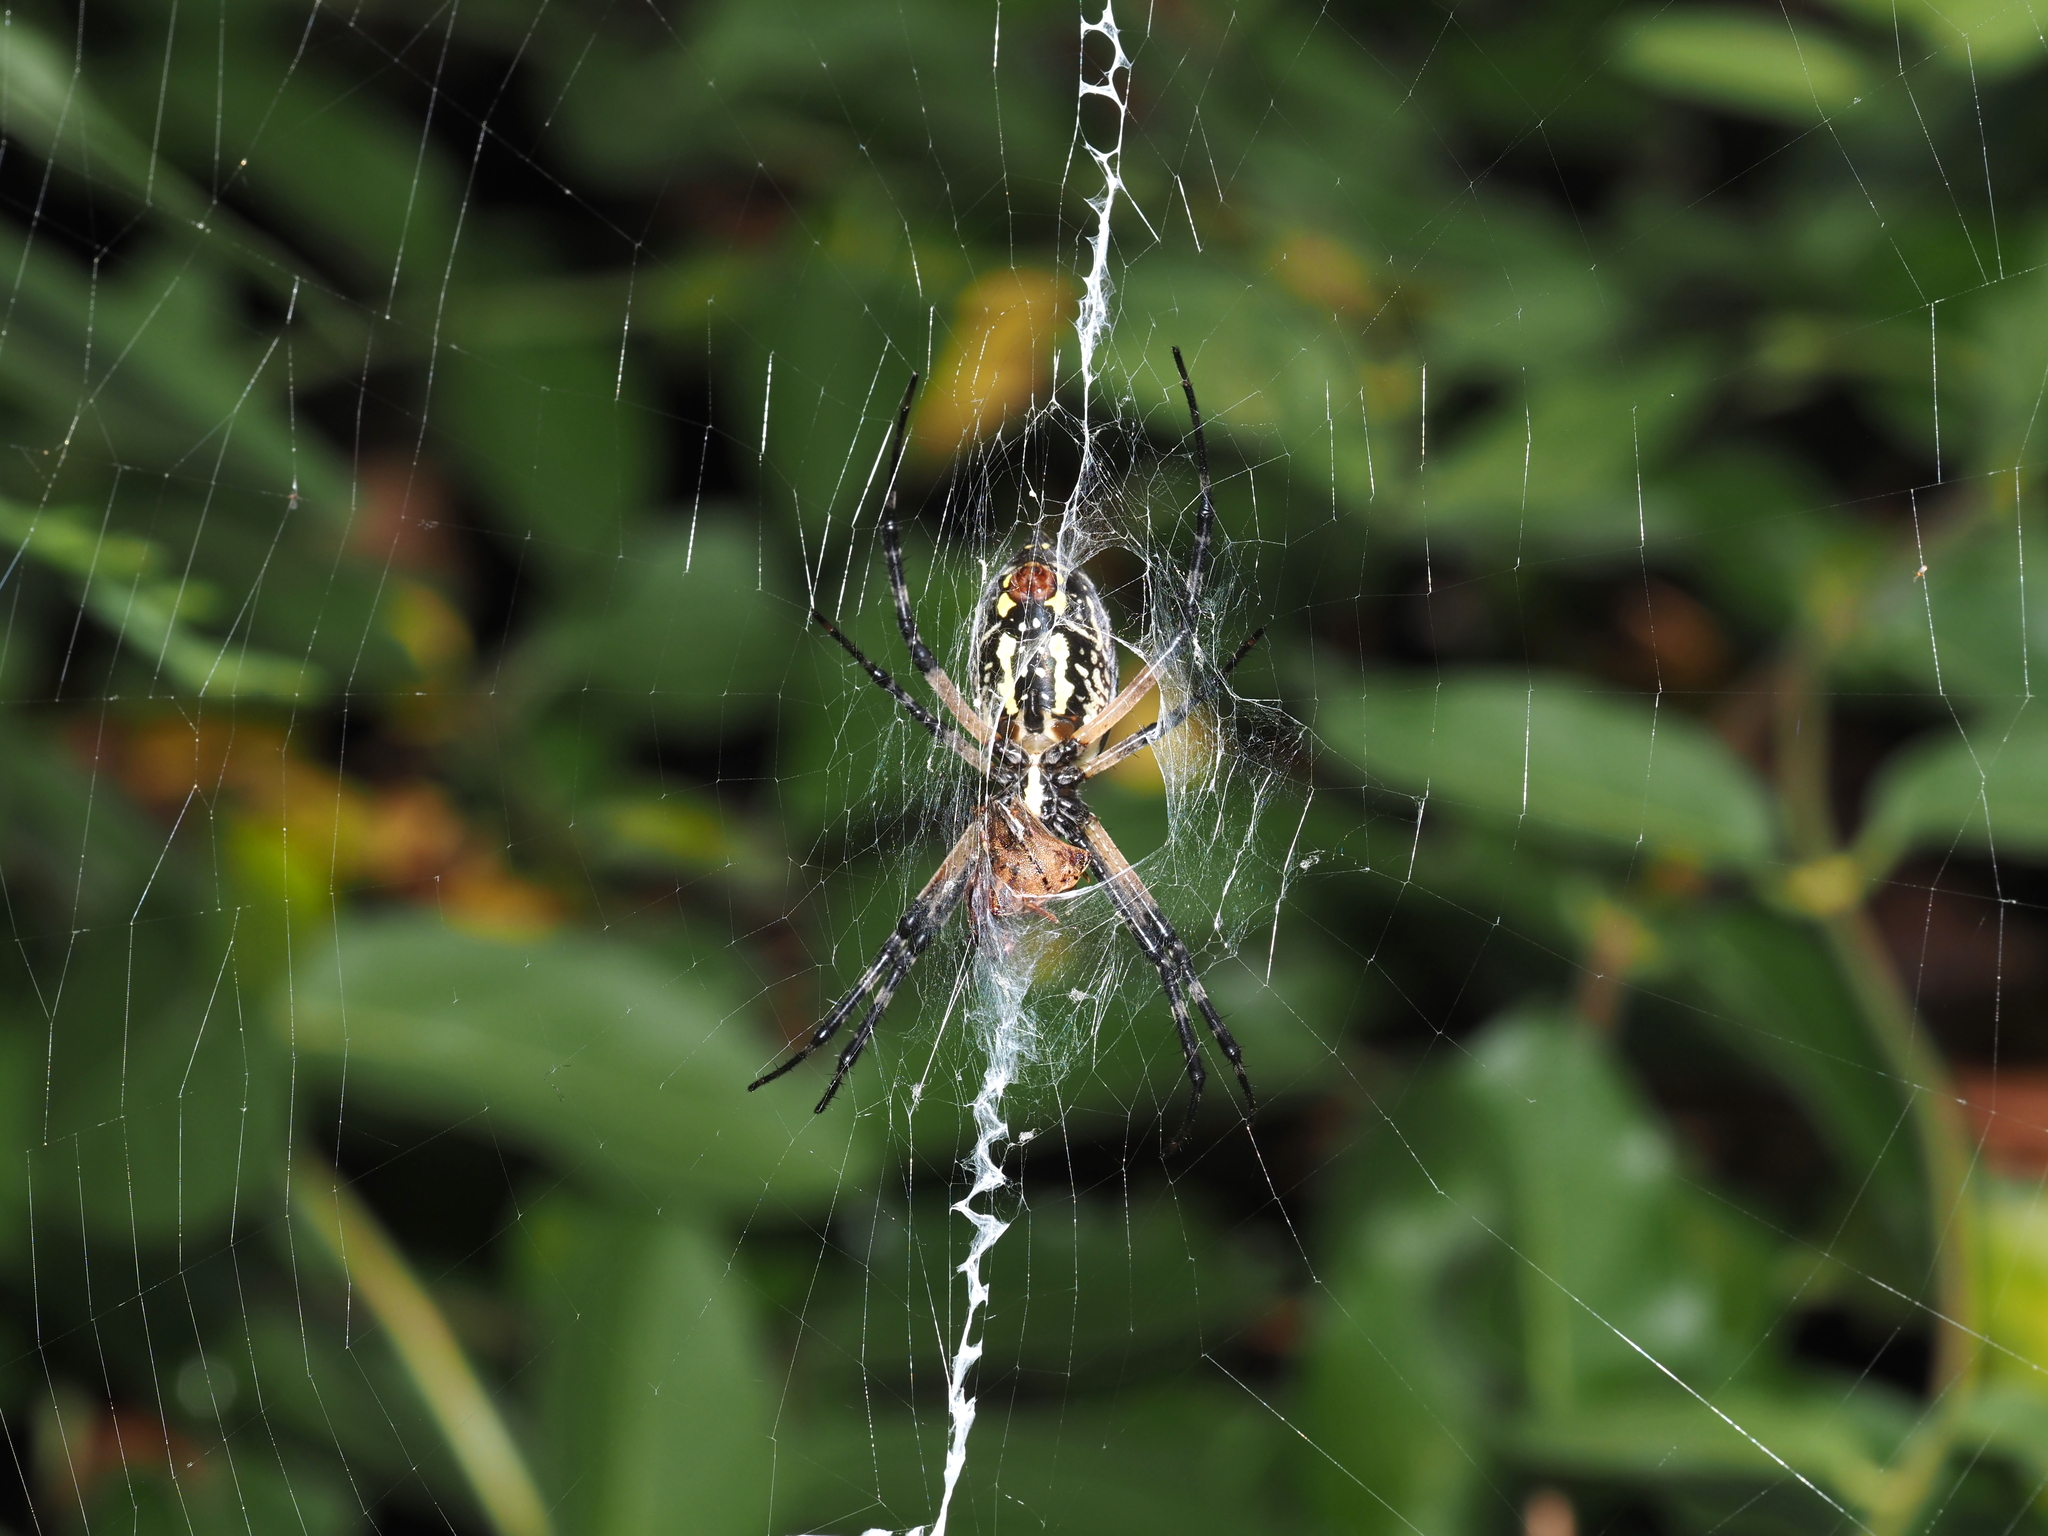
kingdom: Animalia
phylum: Arthropoda
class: Arachnida
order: Araneae
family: Araneidae
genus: Argiope
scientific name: Argiope aurantia
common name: Orb weavers
